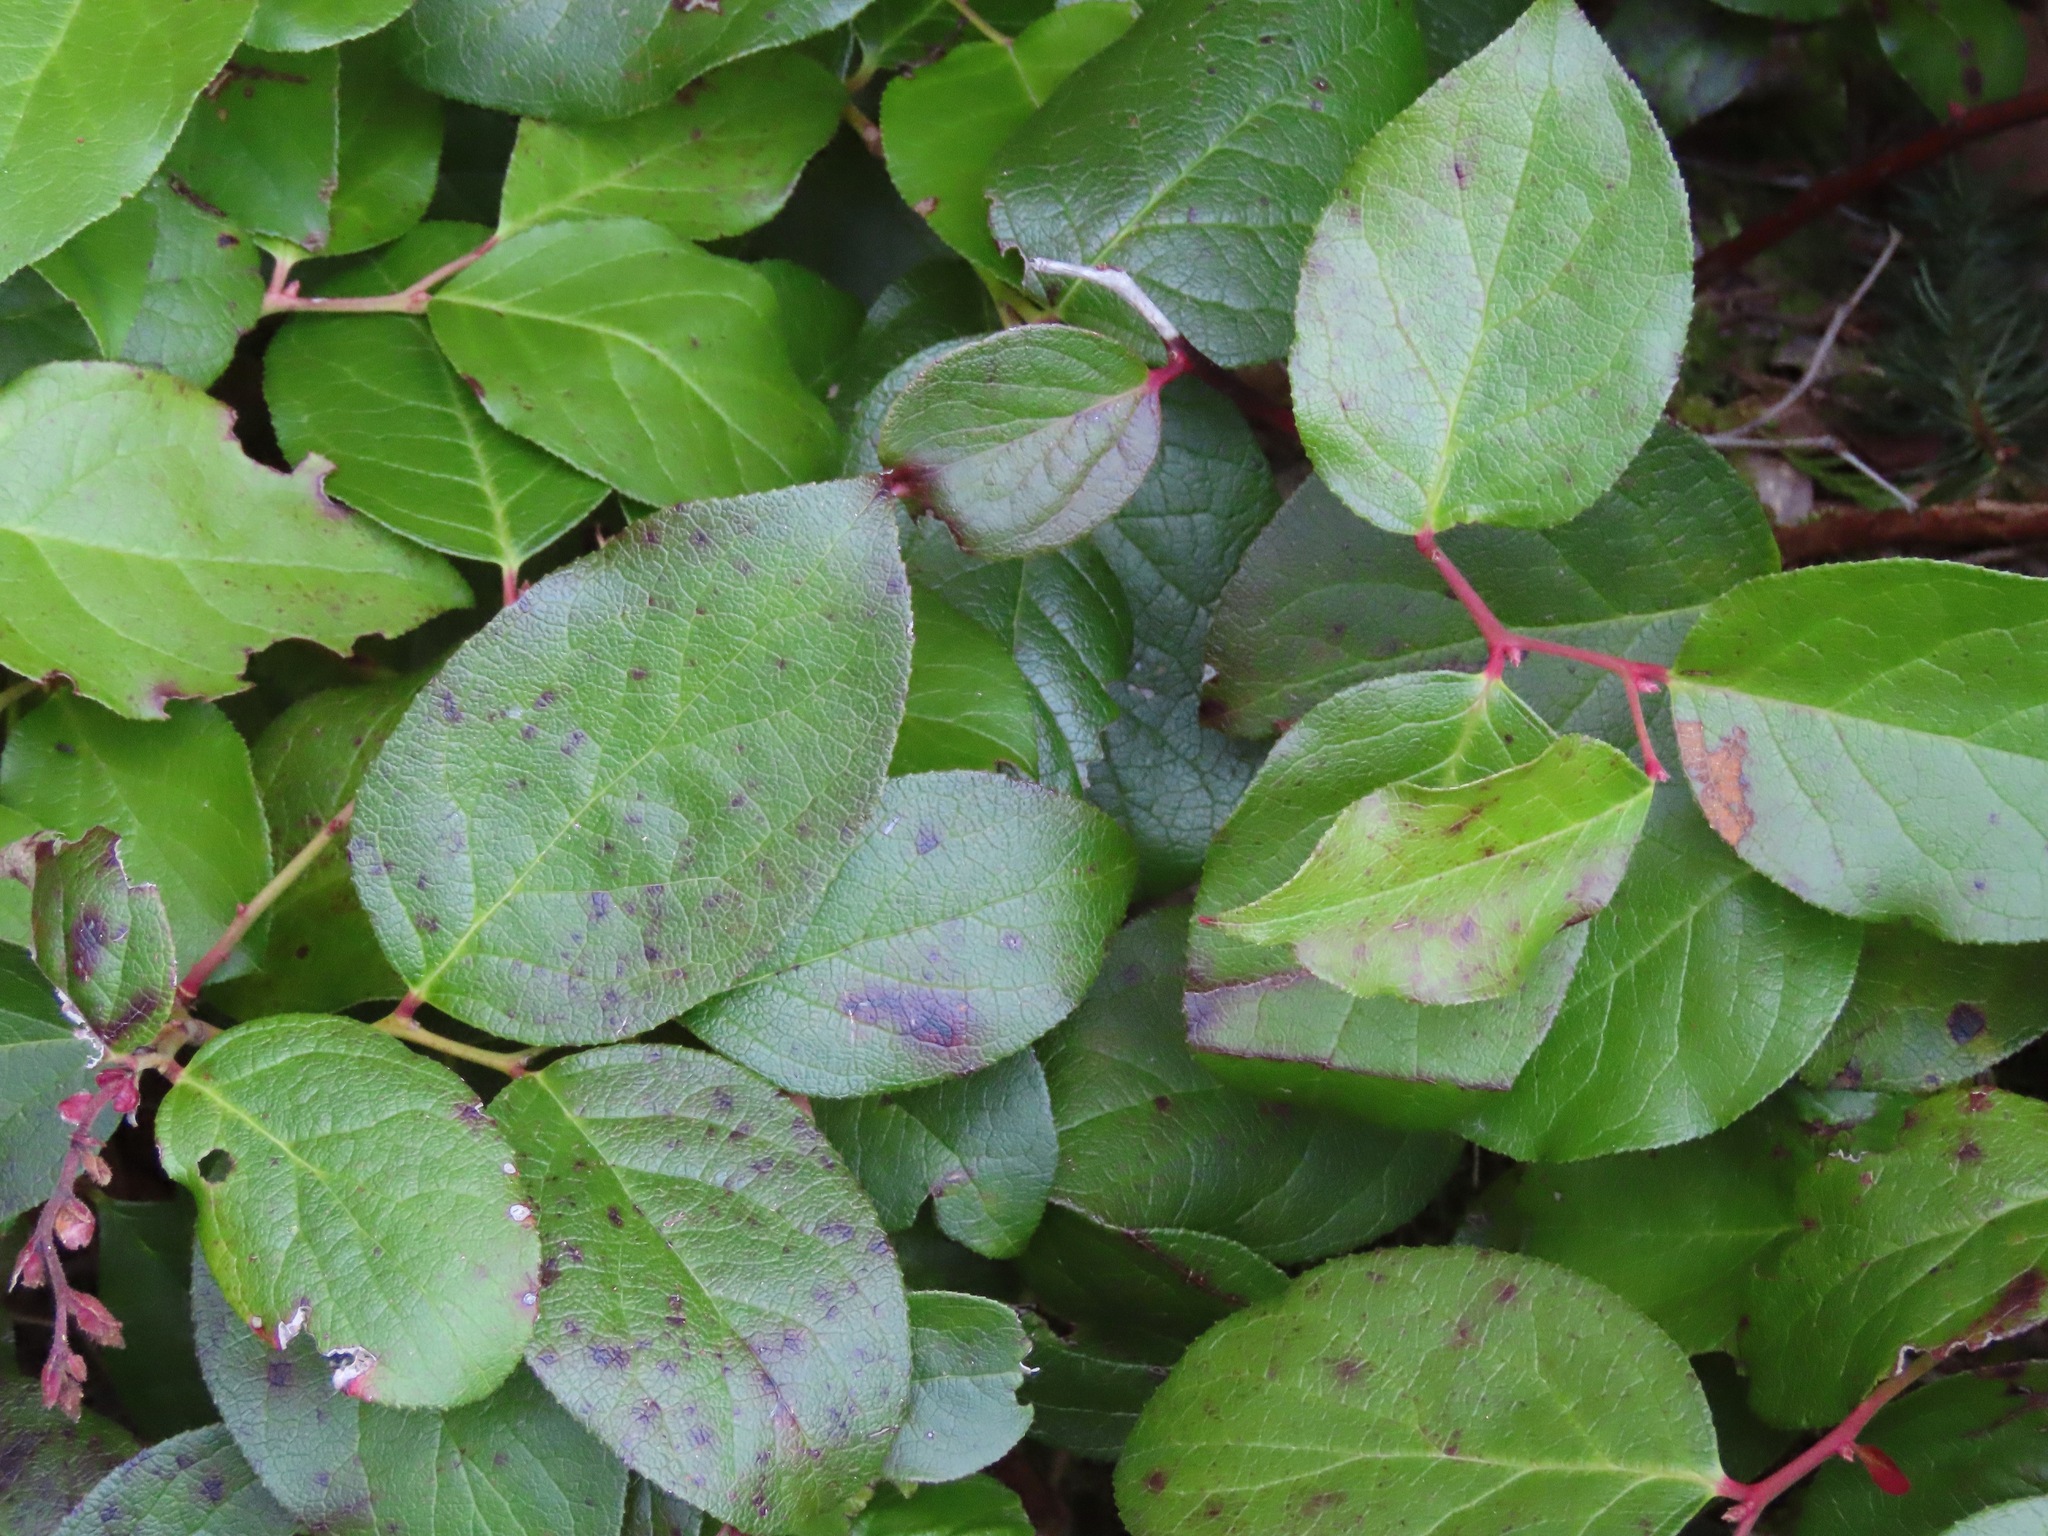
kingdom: Plantae
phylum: Tracheophyta
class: Magnoliopsida
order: Ericales
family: Ericaceae
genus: Gaultheria
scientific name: Gaultheria shallon
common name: Shallon
